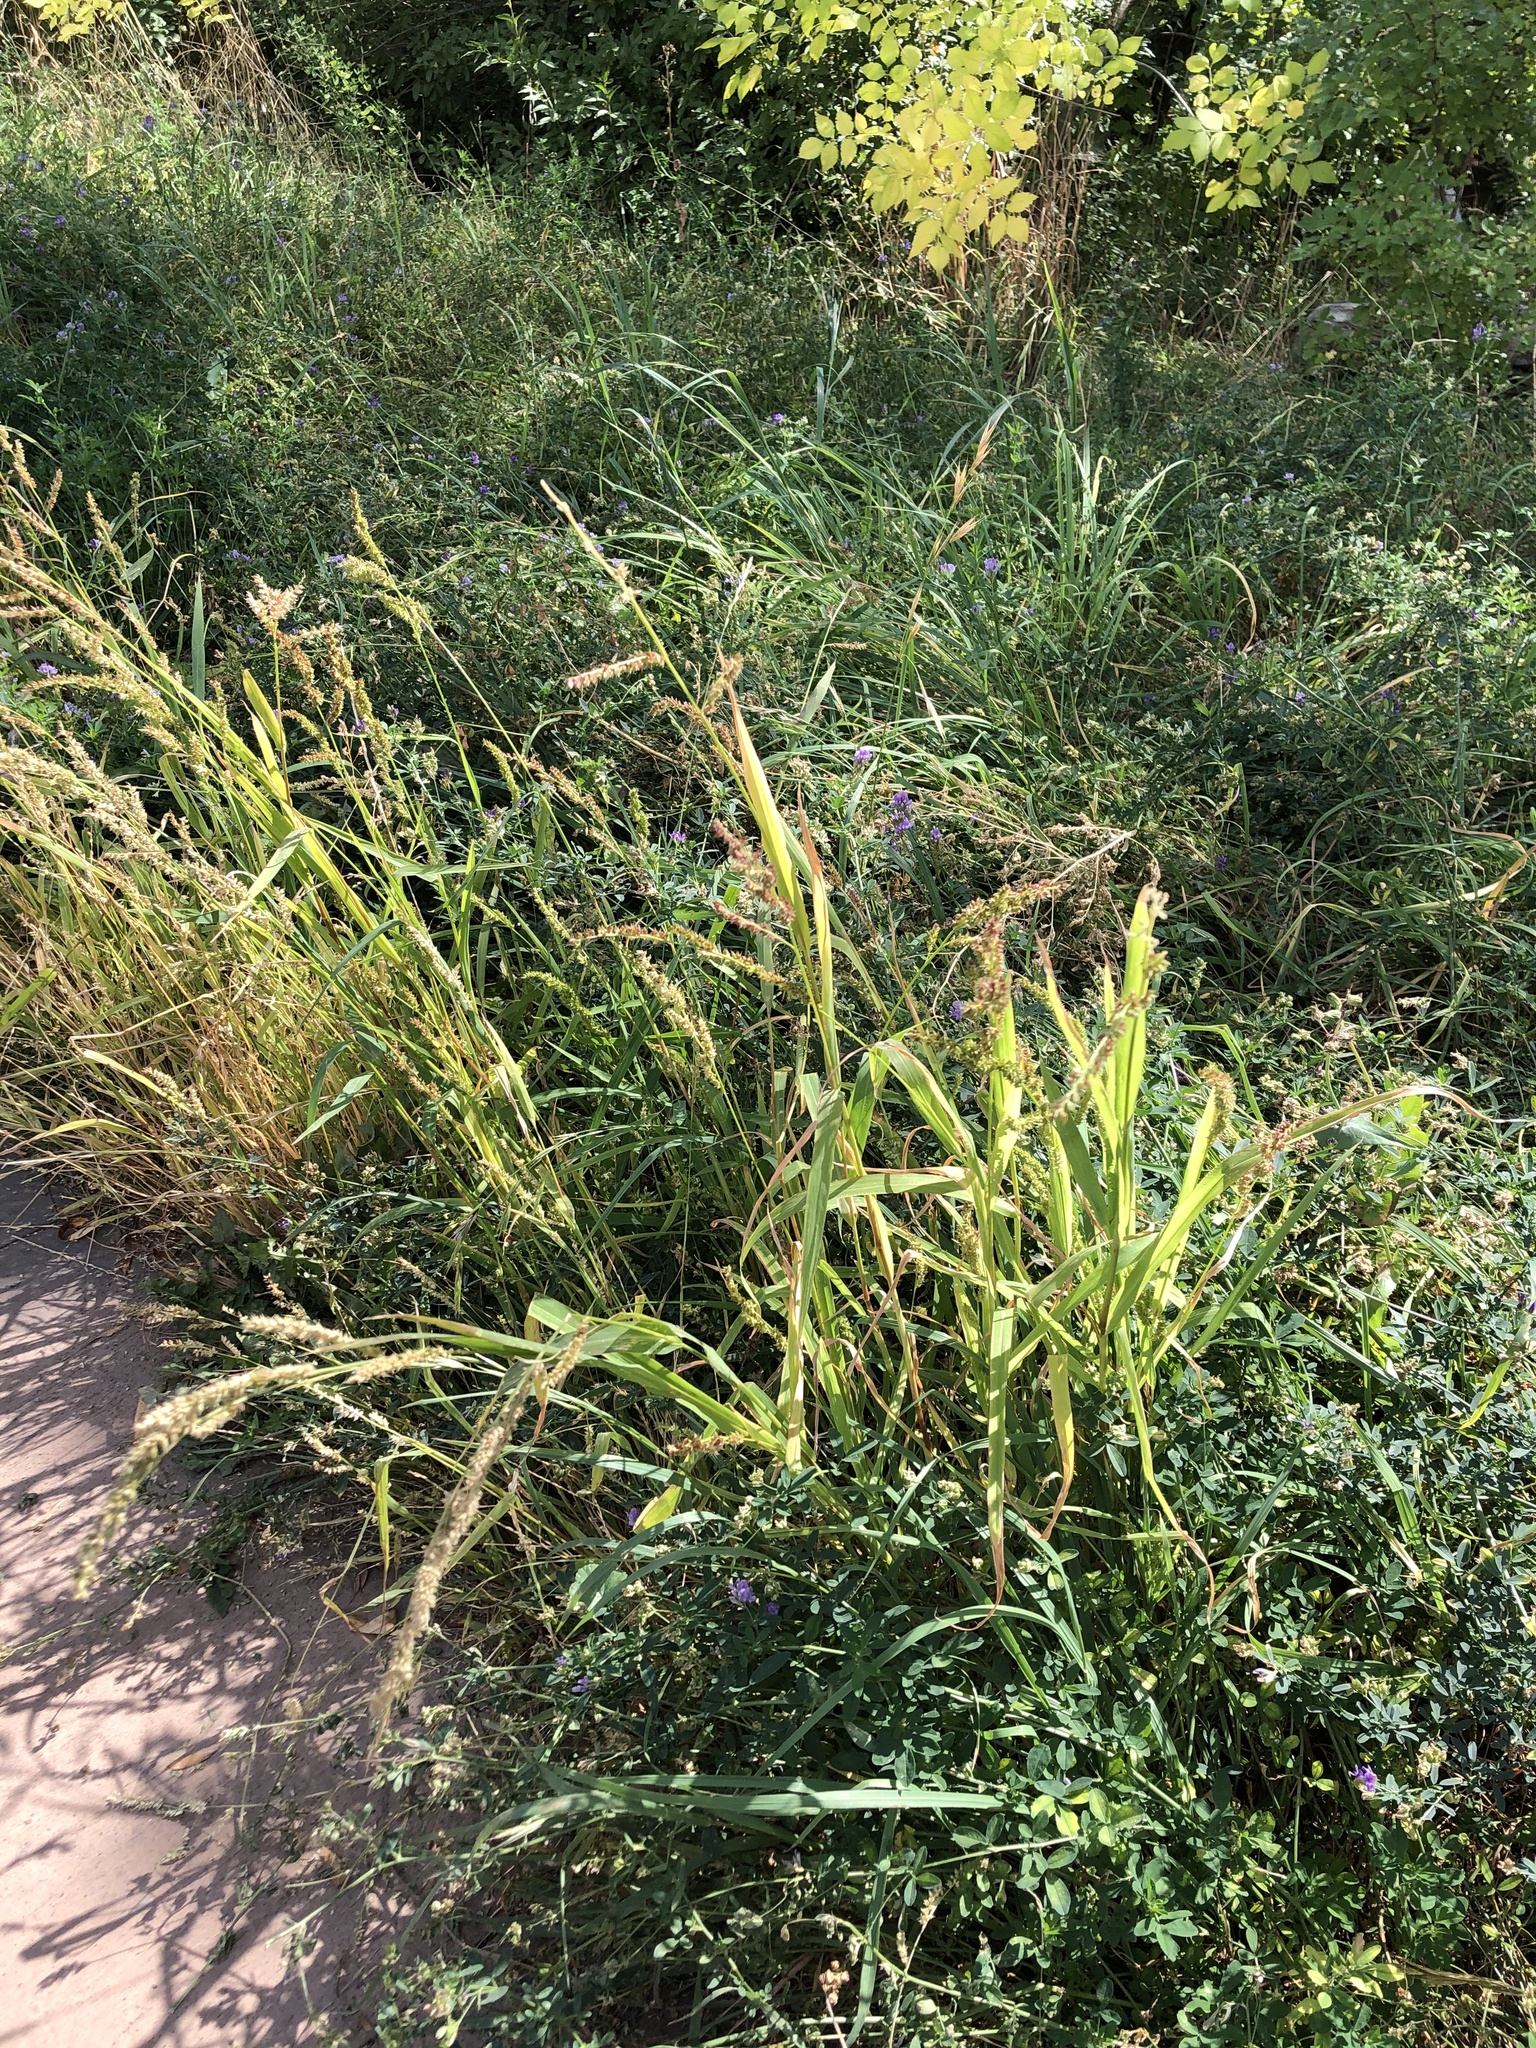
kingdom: Plantae
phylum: Tracheophyta
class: Liliopsida
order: Poales
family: Poaceae
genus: Echinochloa
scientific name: Echinochloa crus-galli
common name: Cockspur
